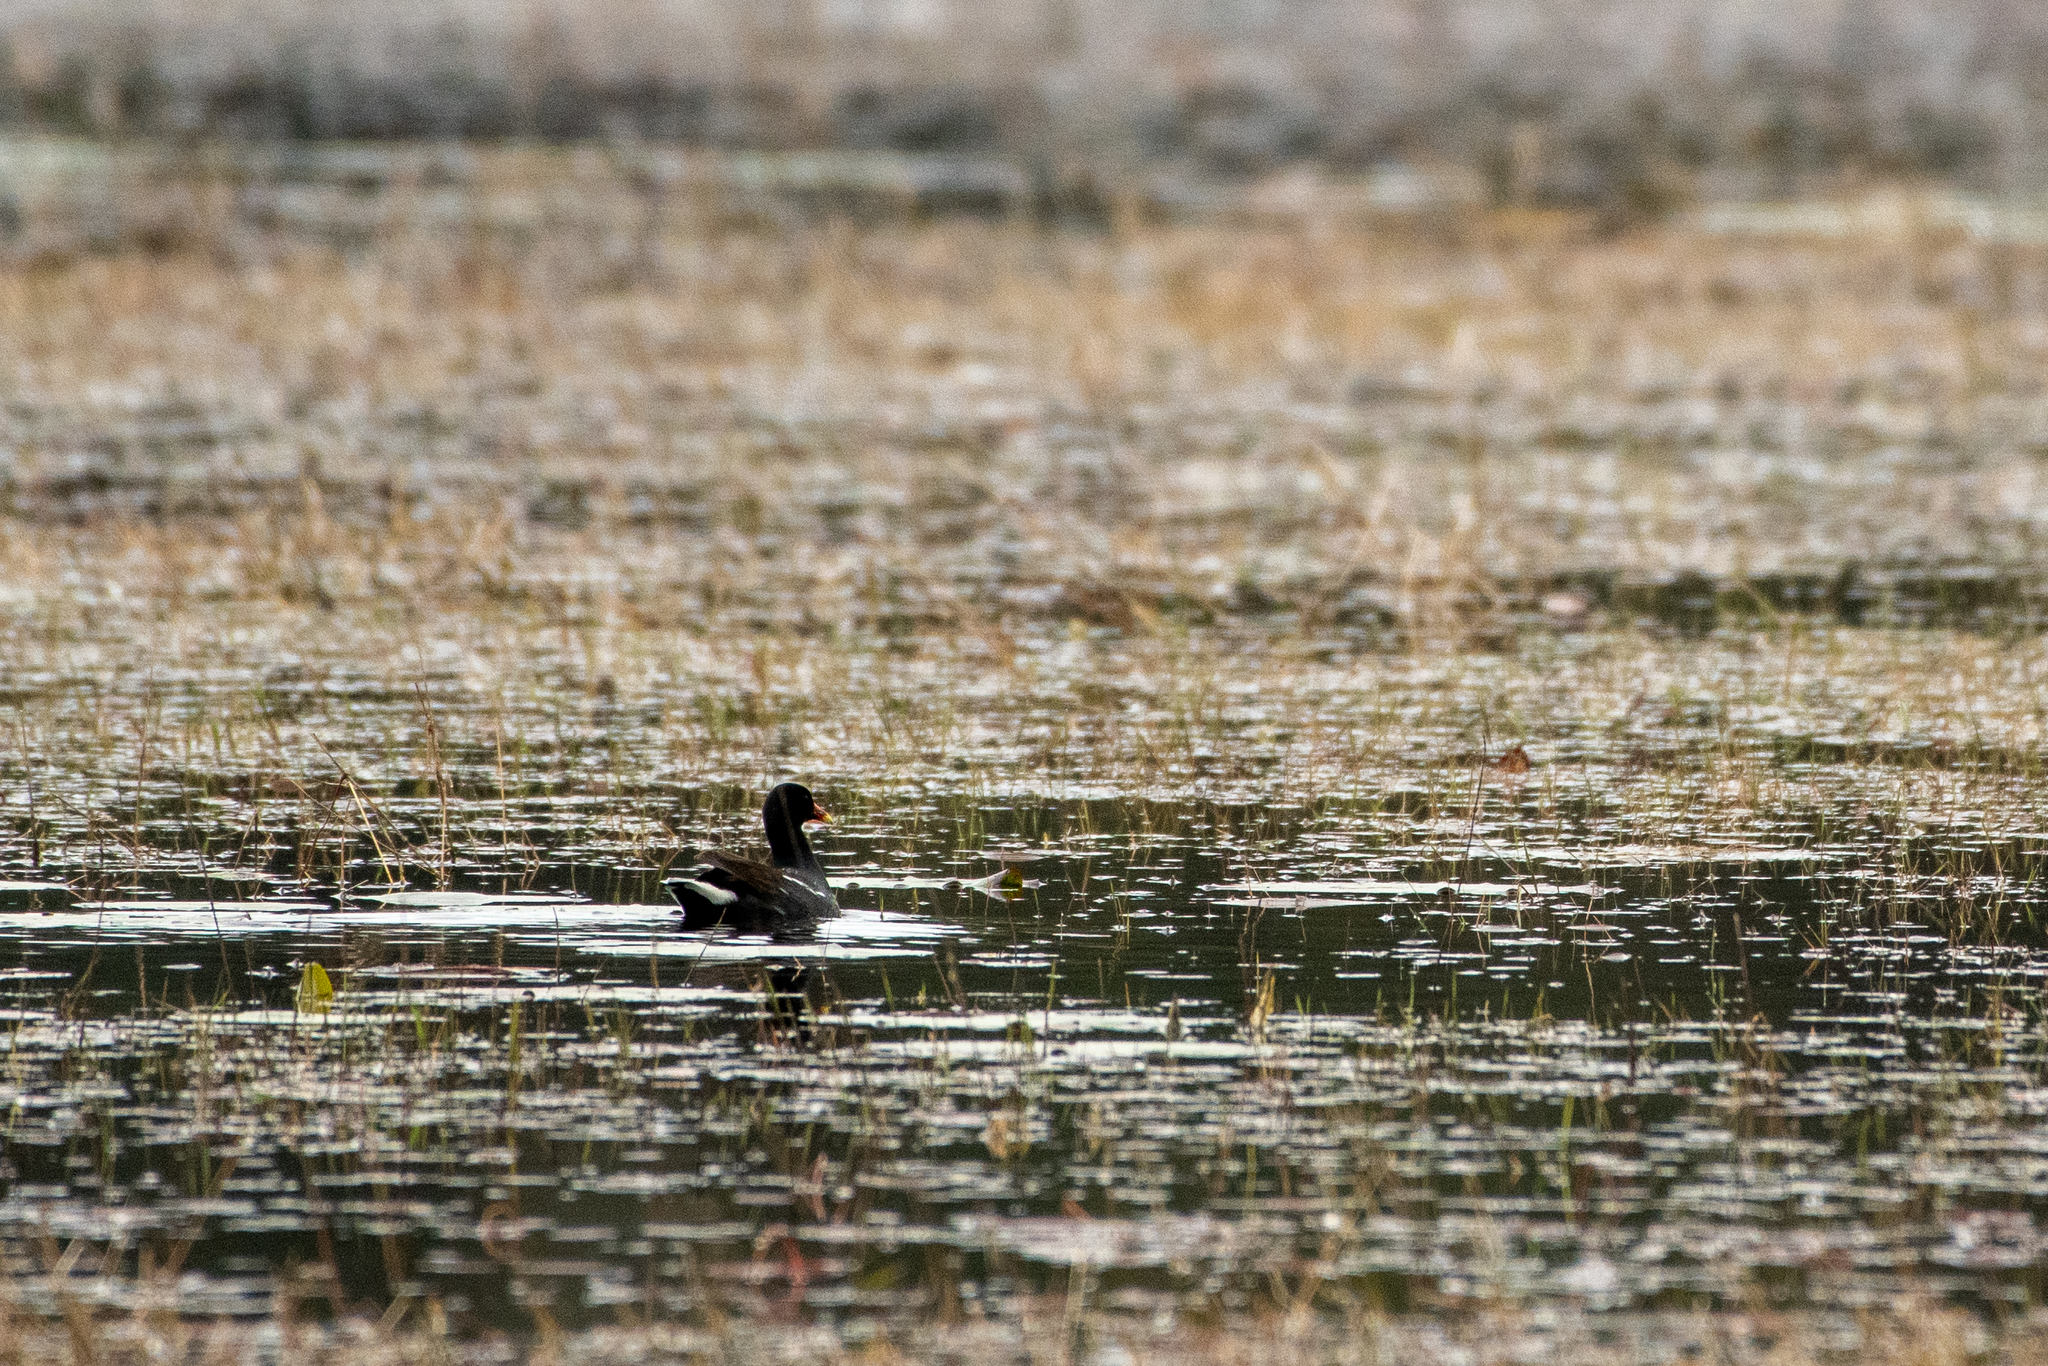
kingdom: Animalia
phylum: Chordata
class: Aves
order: Gruiformes
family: Rallidae
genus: Gallinula
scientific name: Gallinula chloropus
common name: Common moorhen
